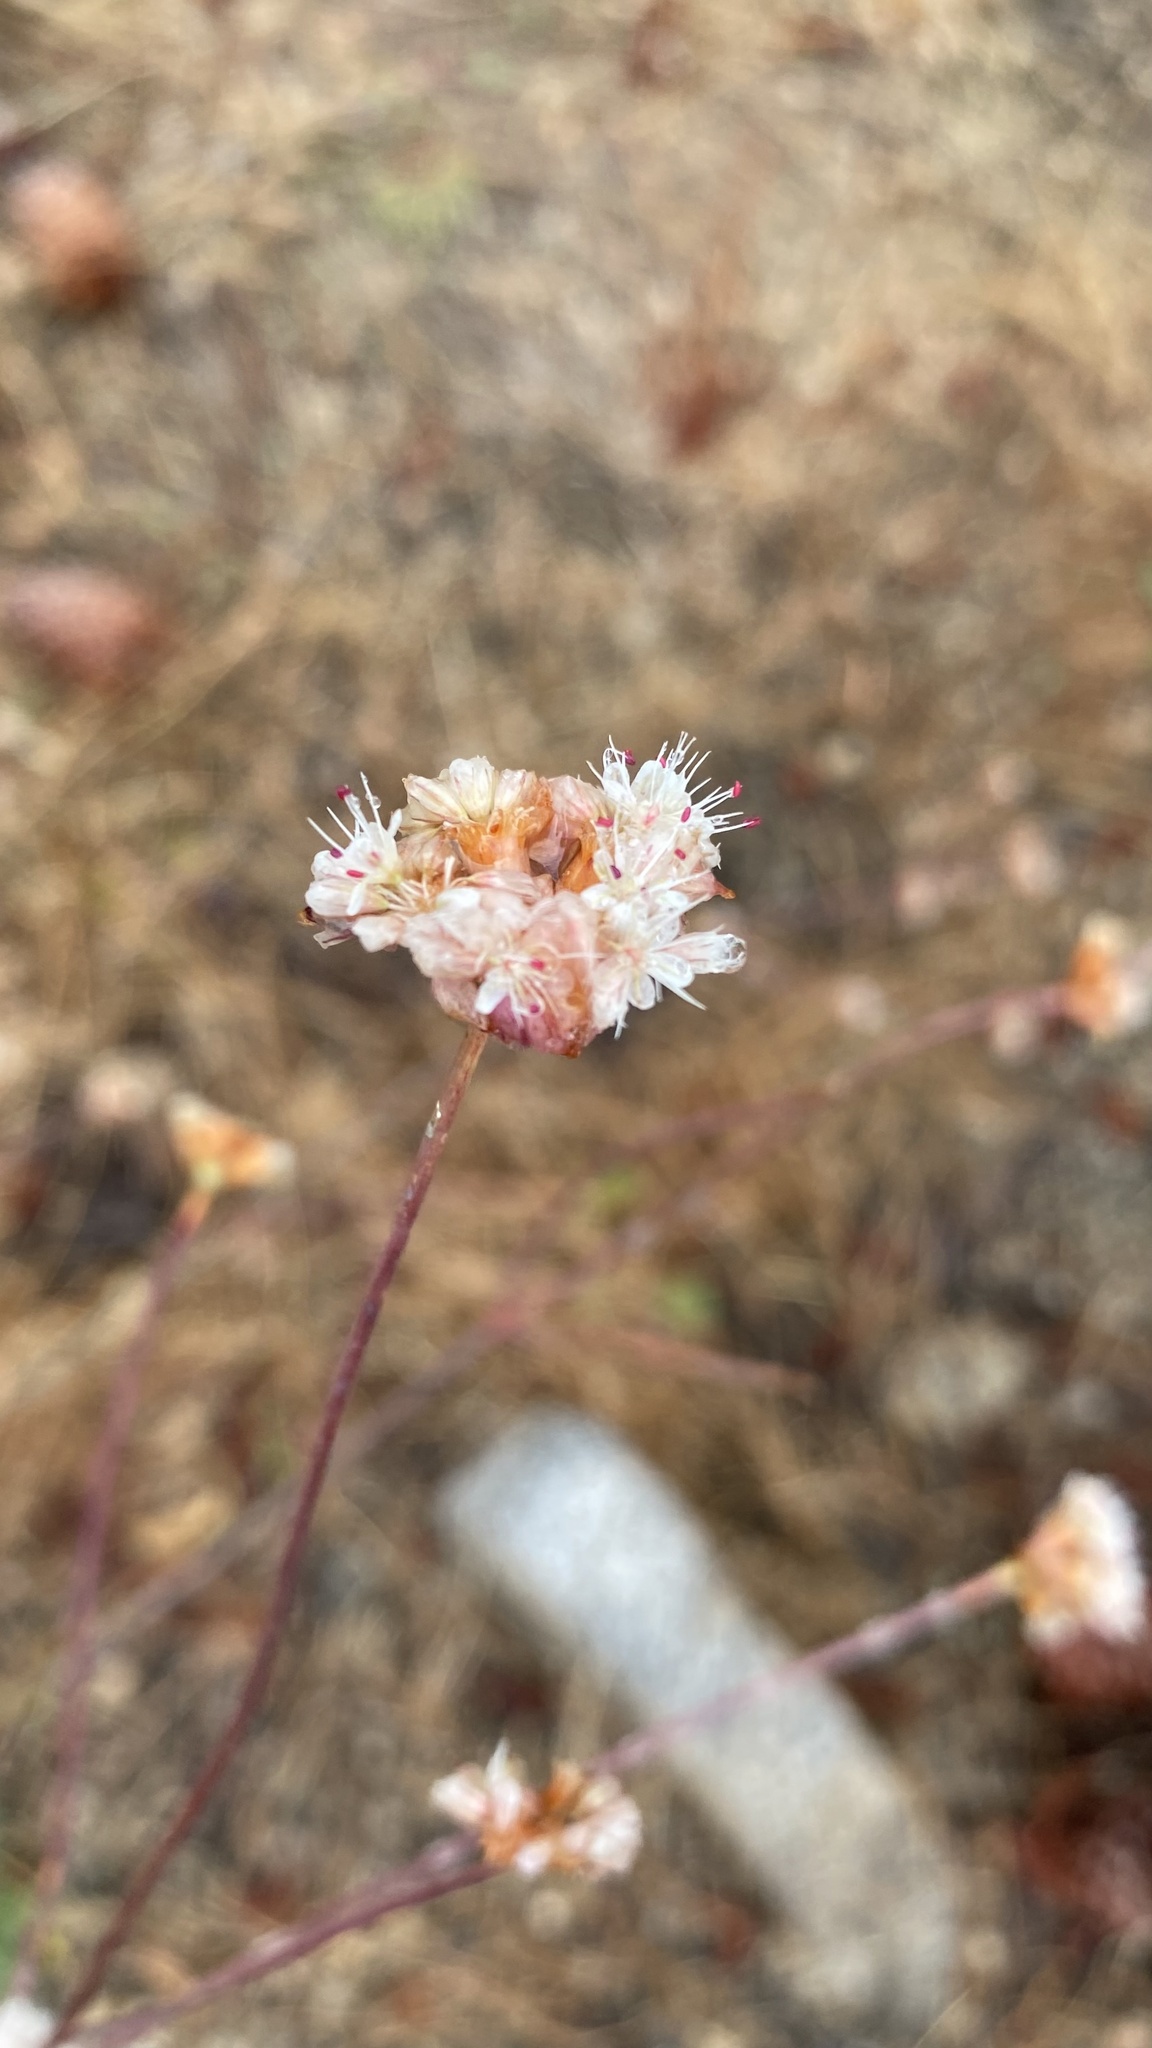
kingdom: Plantae
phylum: Tracheophyta
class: Magnoliopsida
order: Caryophyllales
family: Polygonaceae
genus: Eriogonum
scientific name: Eriogonum nudum
